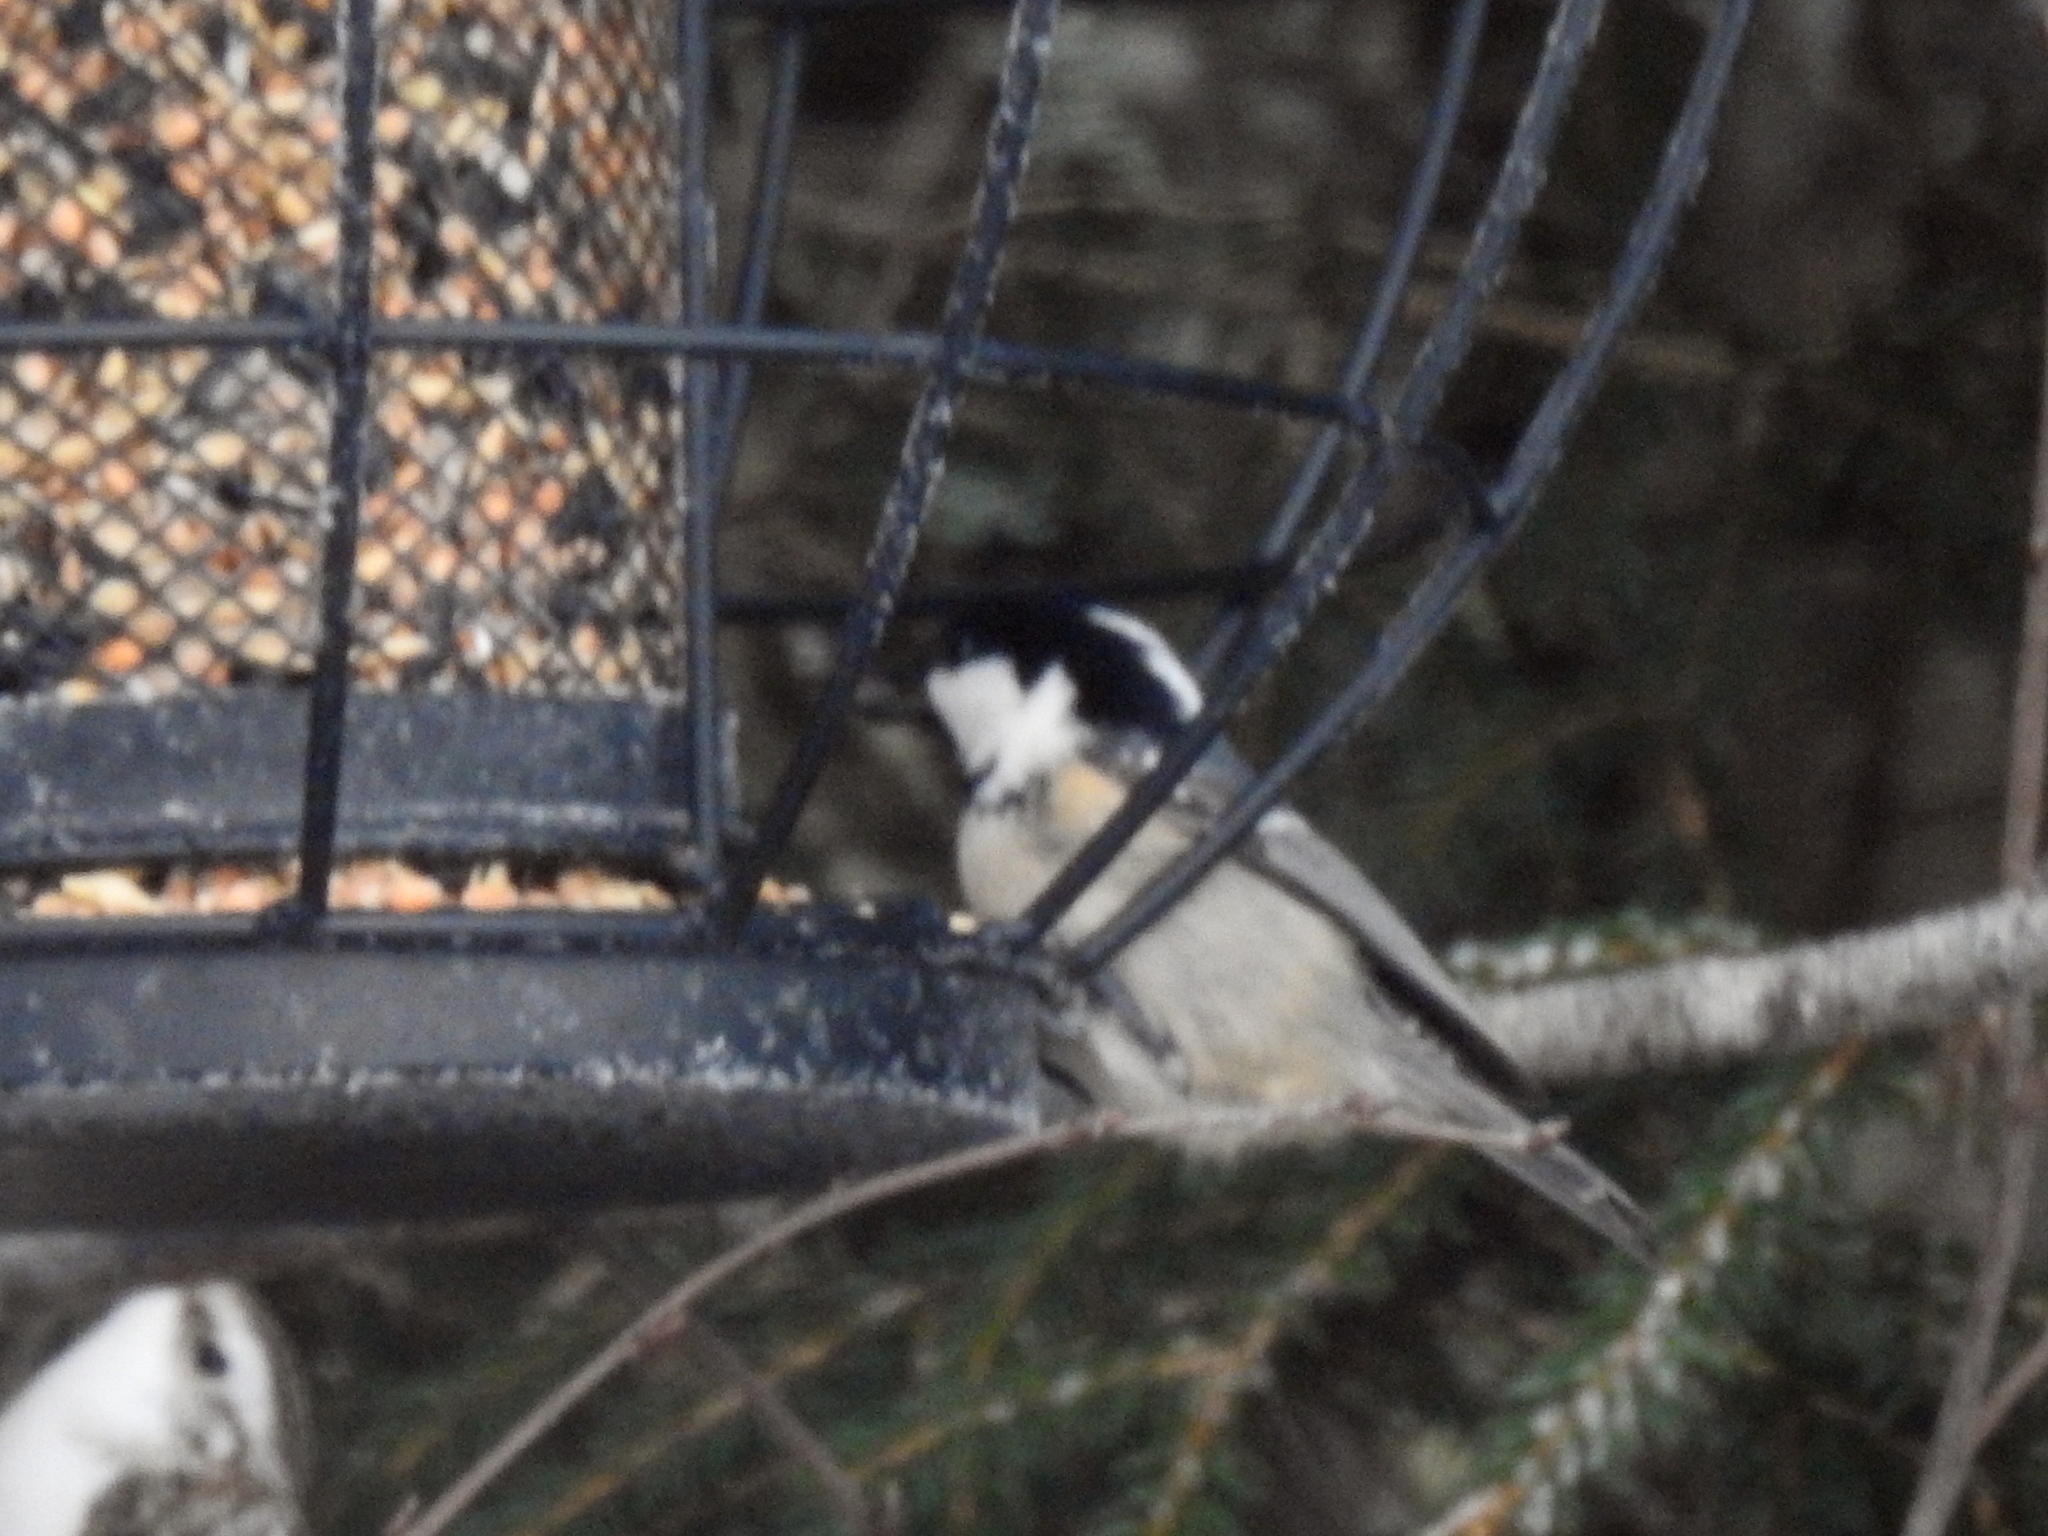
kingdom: Animalia
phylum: Chordata
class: Aves
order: Passeriformes
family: Paridae
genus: Periparus
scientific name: Periparus ater
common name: Coal tit
